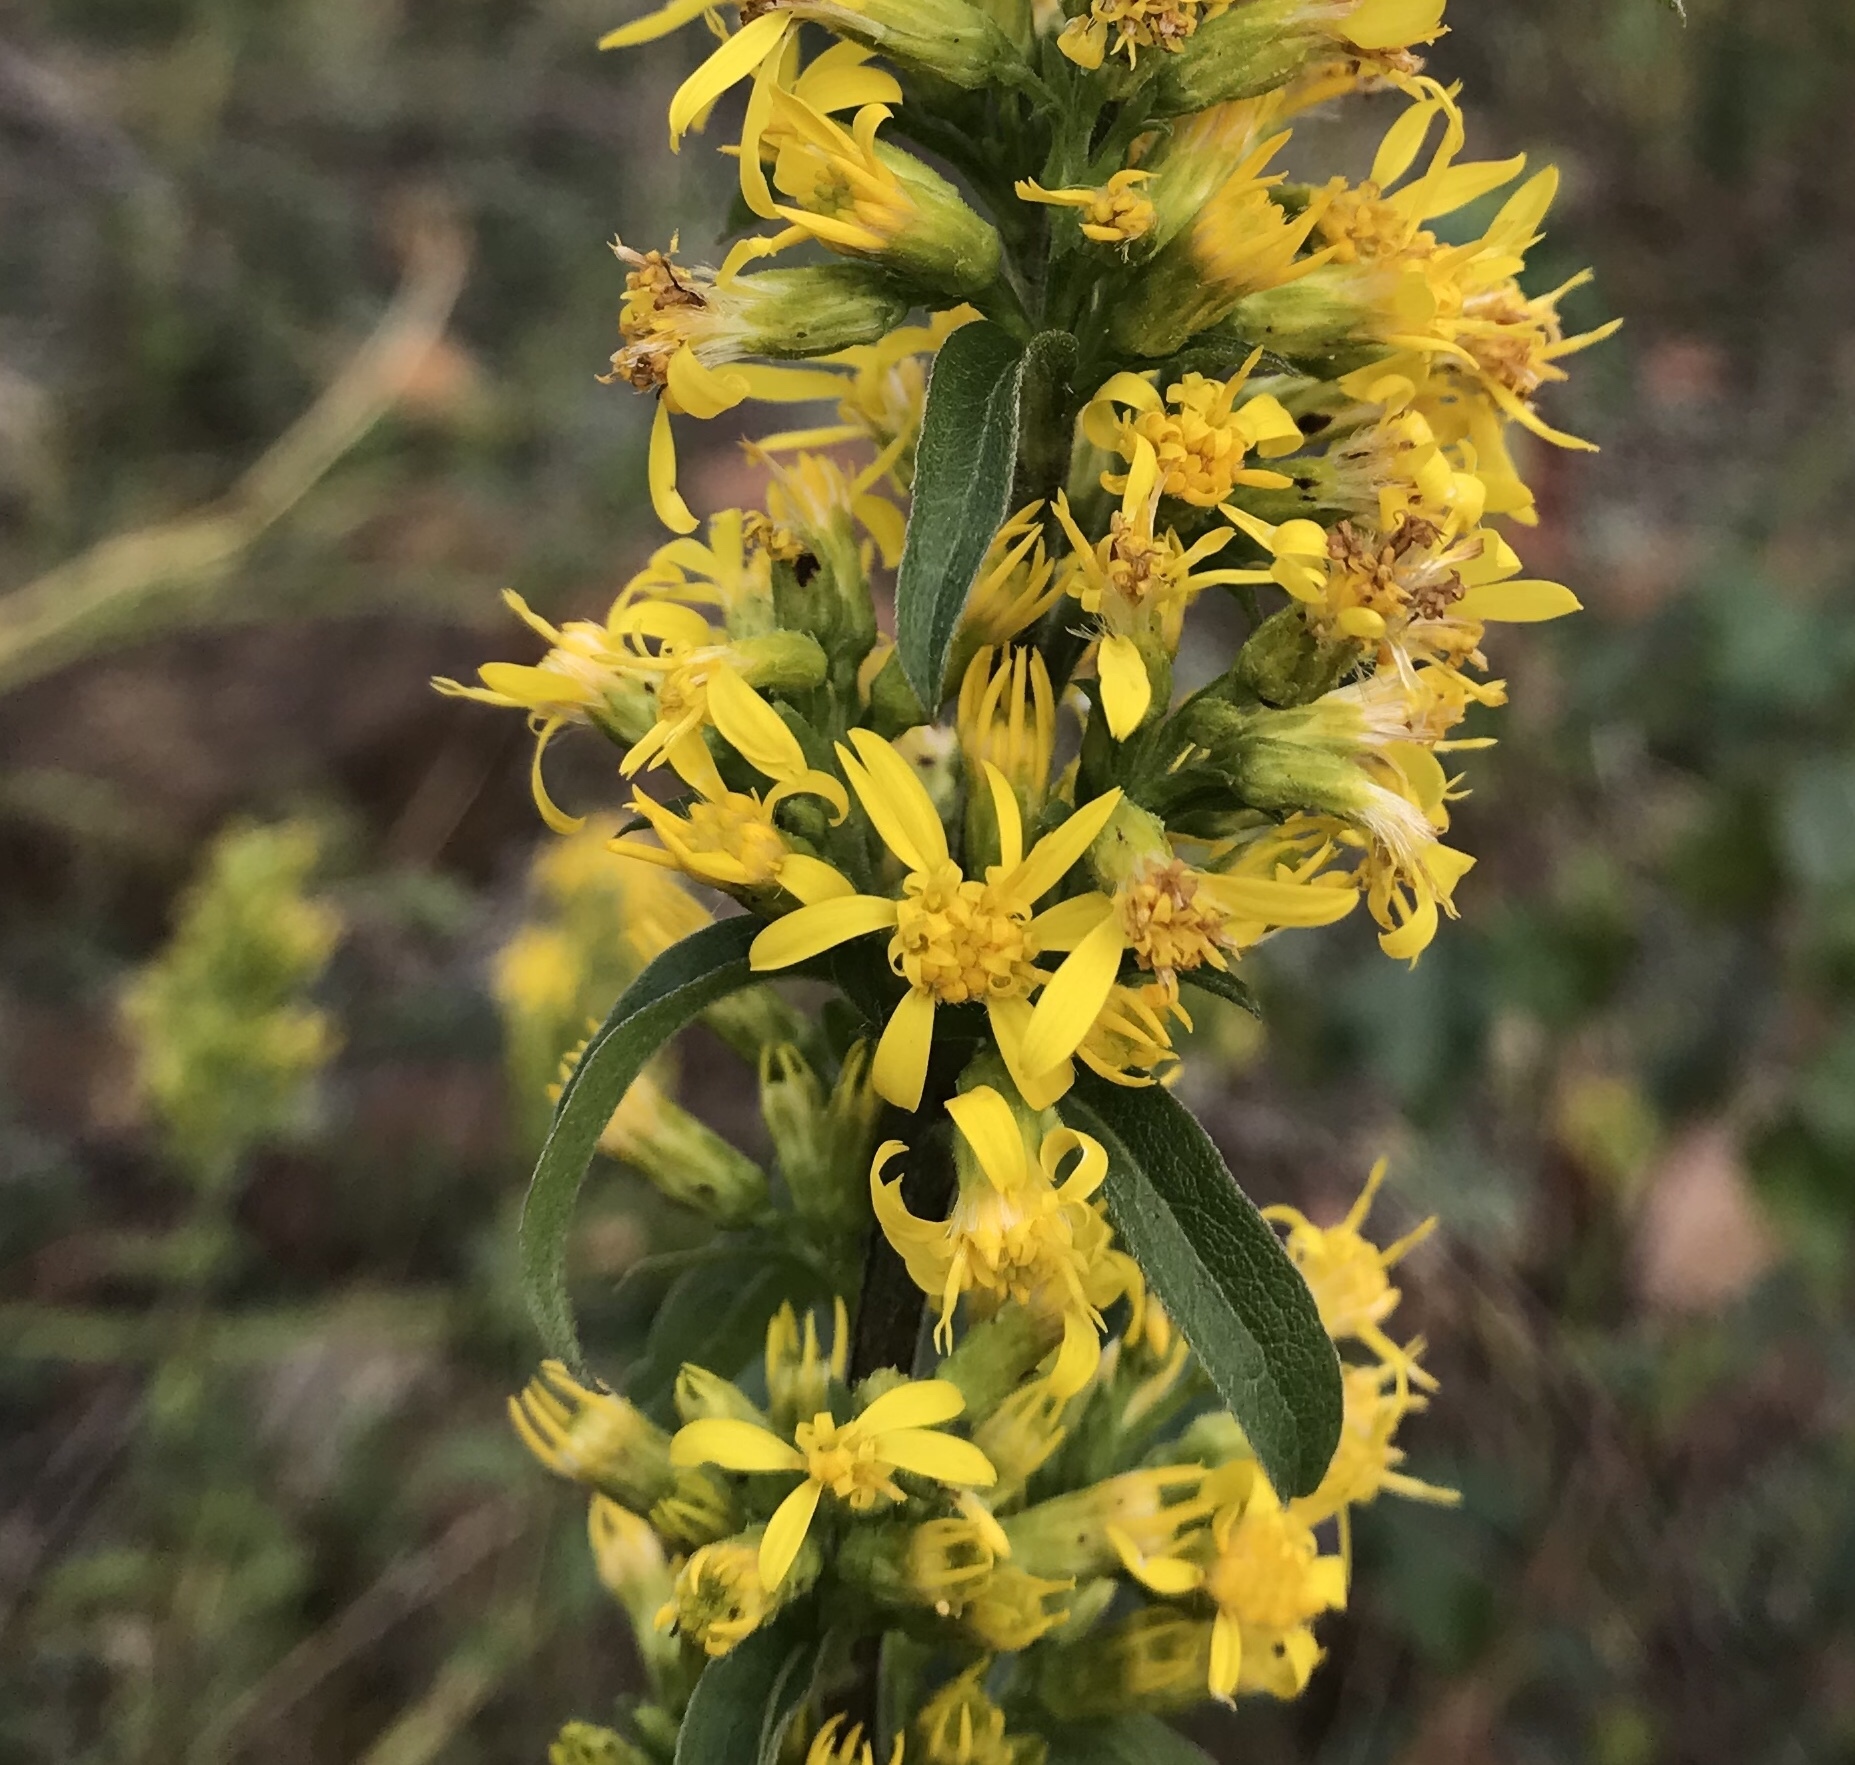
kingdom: Plantae
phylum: Tracheophyta
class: Magnoliopsida
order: Asterales
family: Asteraceae
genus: Solidago
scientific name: Solidago virgaurea
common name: Goldenrod
